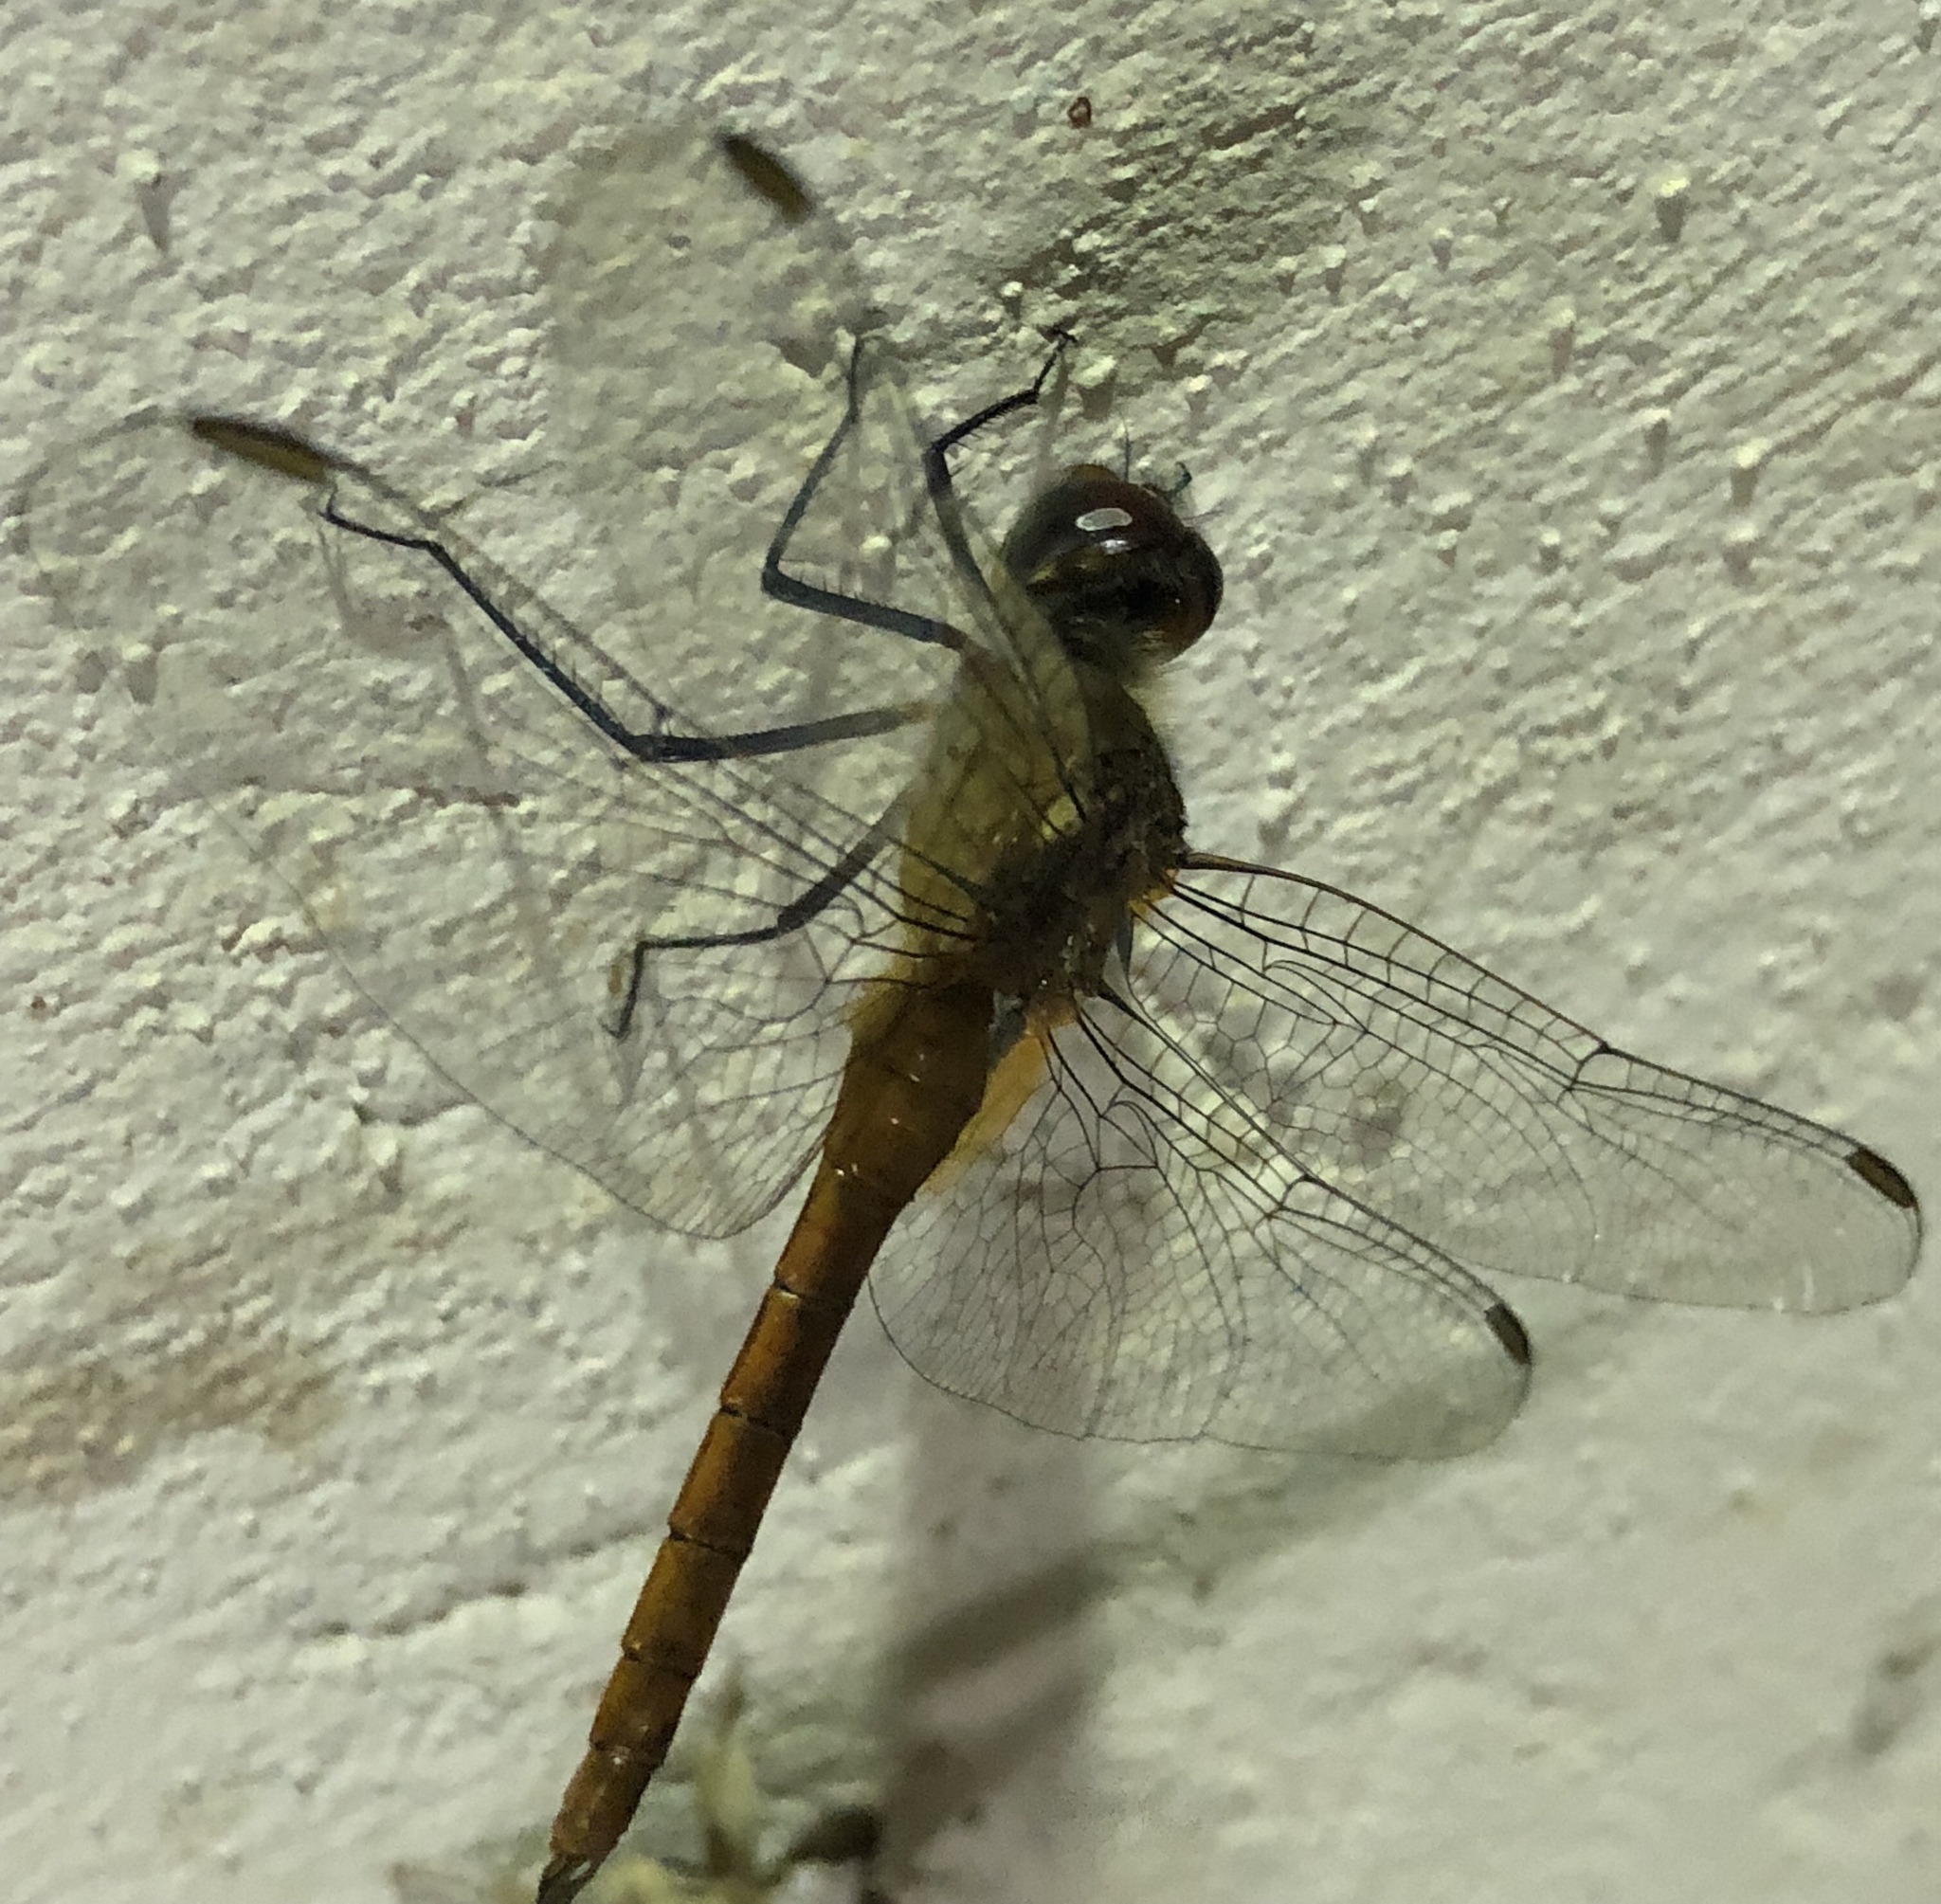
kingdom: Animalia
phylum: Arthropoda
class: Insecta
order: Odonata
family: Libellulidae
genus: Brachymesia
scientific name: Brachymesia furcata
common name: Red-taled pennant
